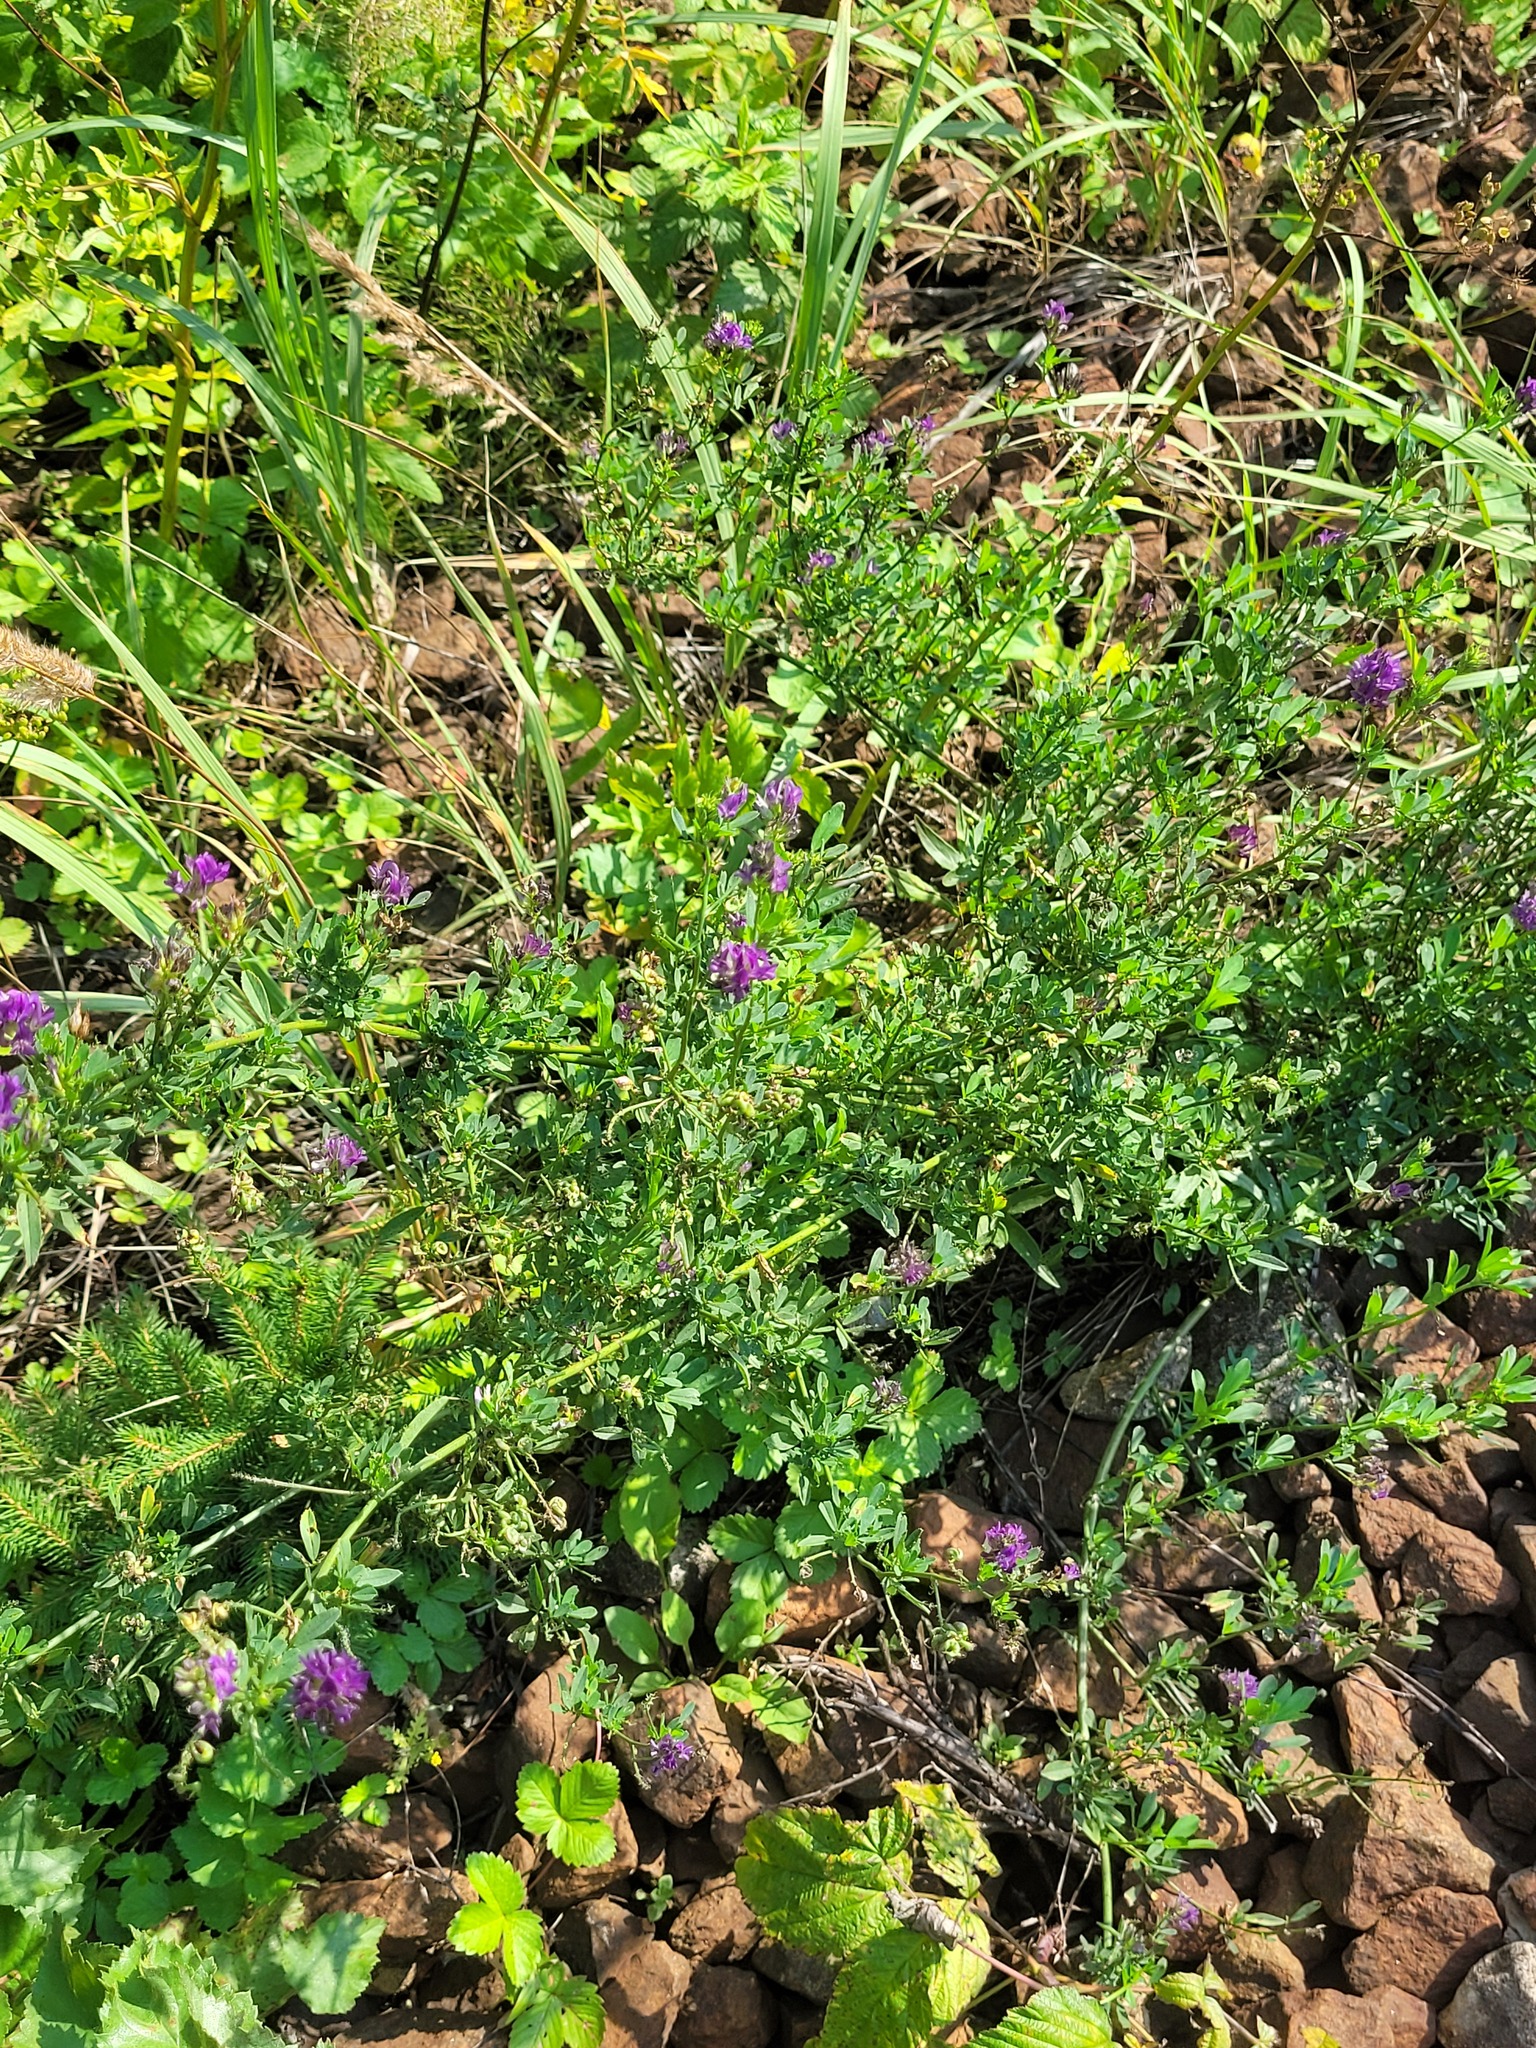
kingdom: Plantae
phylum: Tracheophyta
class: Magnoliopsida
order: Fabales
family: Fabaceae
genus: Medicago
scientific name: Medicago varia
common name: Sand lucerne
